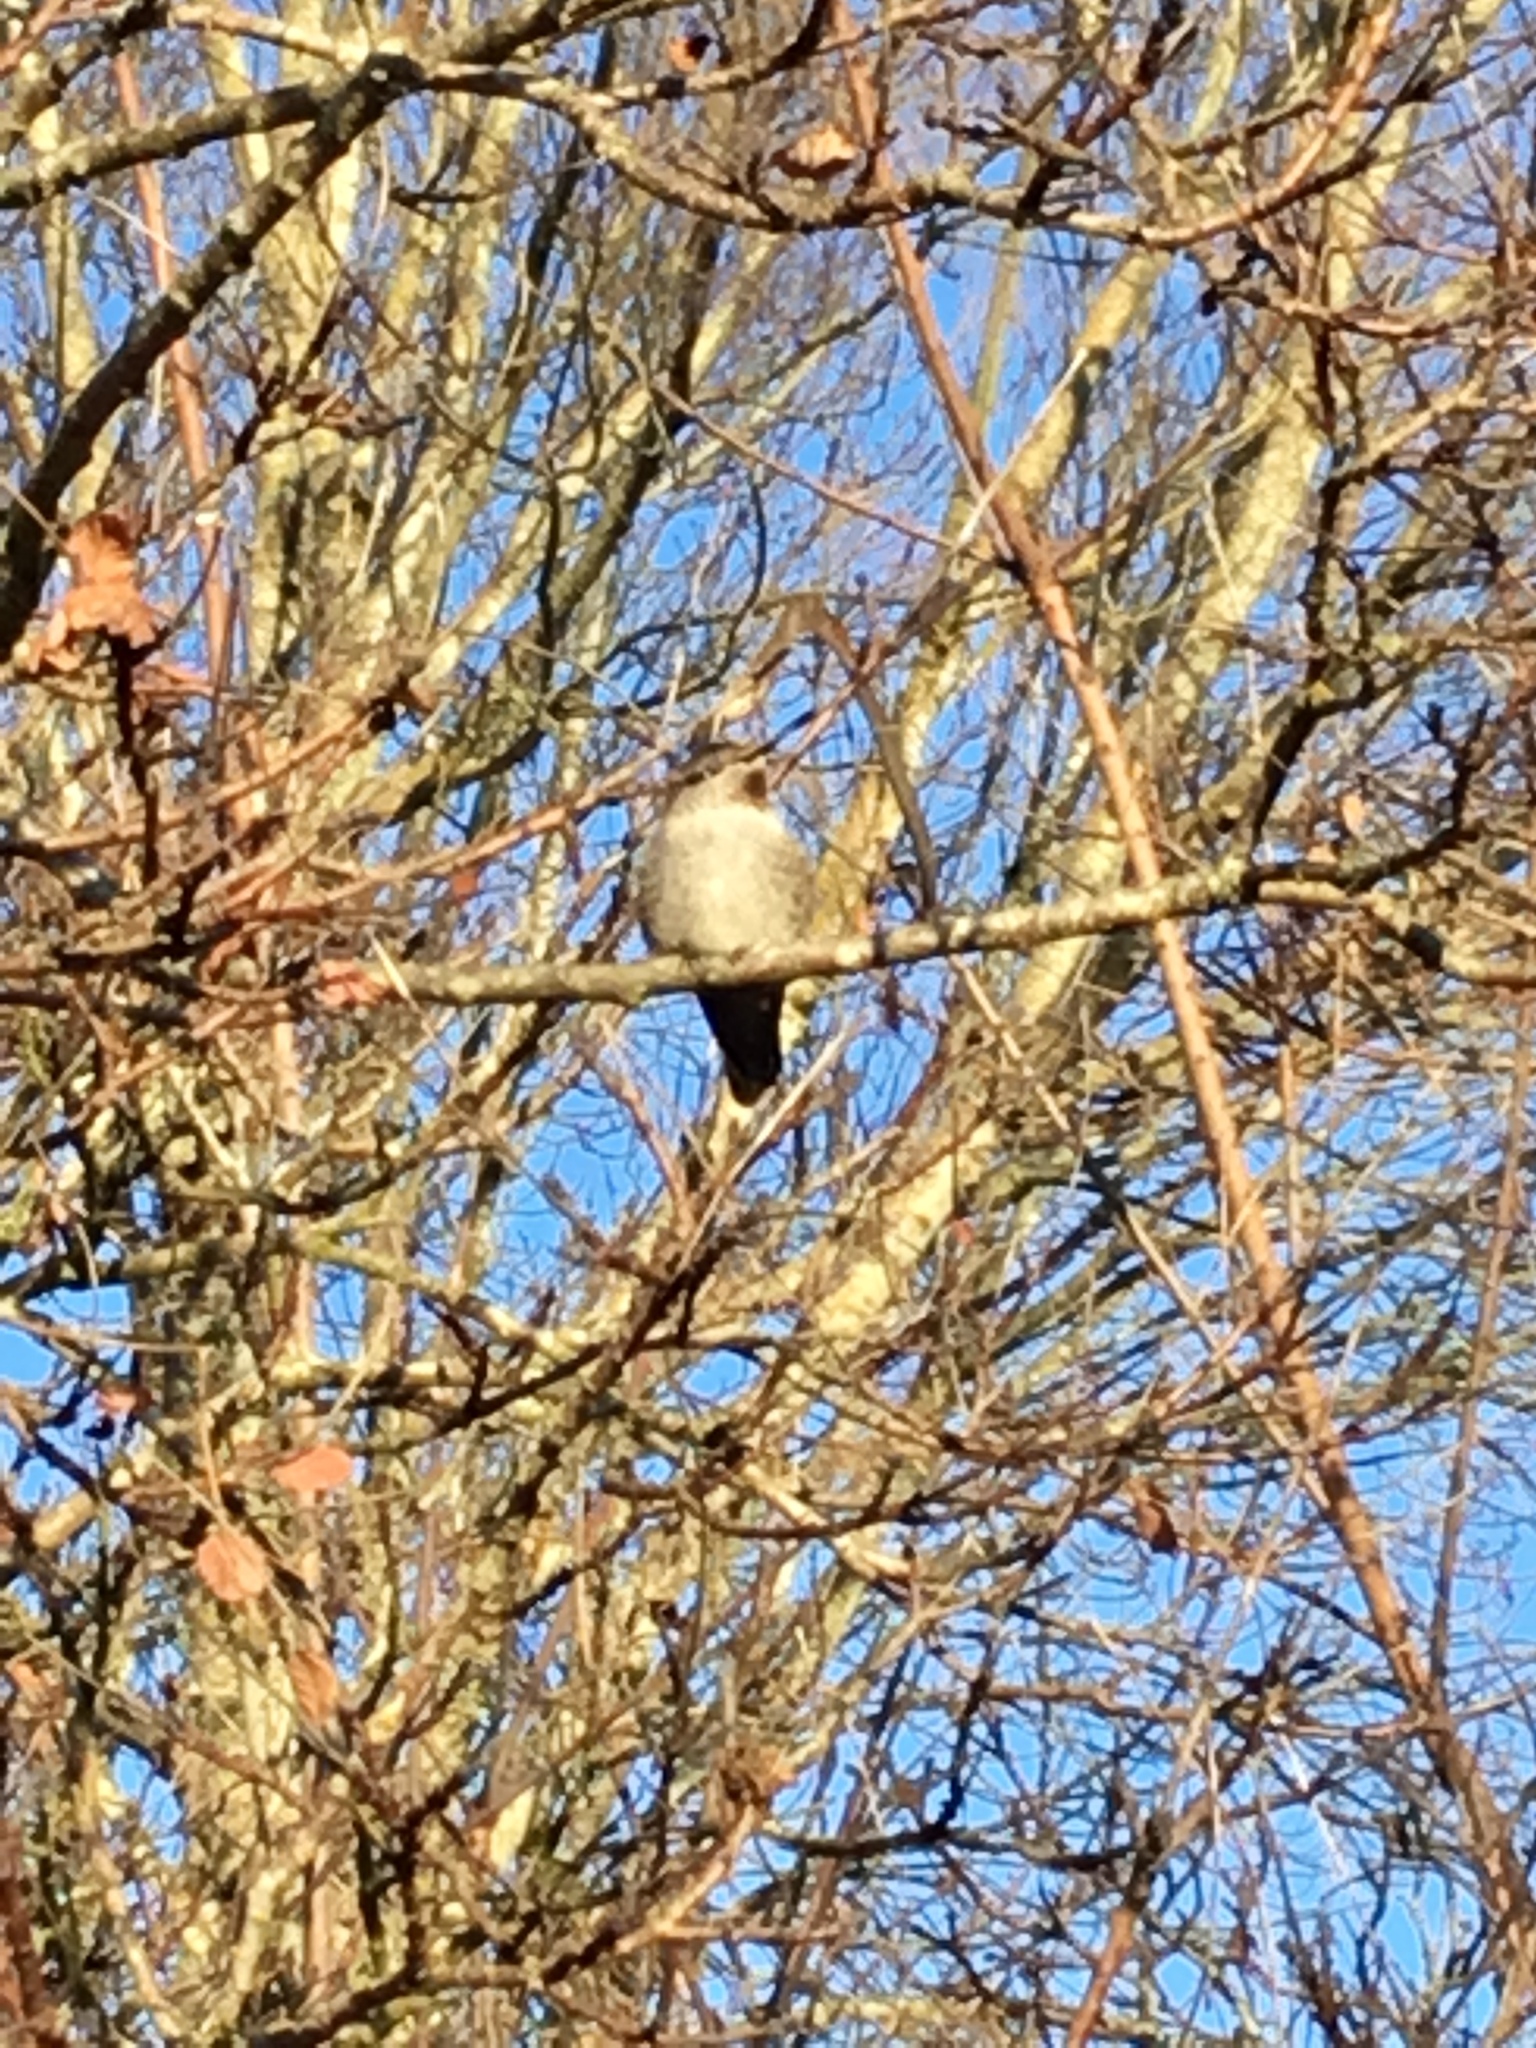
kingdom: Animalia
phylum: Chordata
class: Aves
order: Apodiformes
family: Trochilidae
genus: Calypte
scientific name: Calypte anna
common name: Anna's hummingbird
